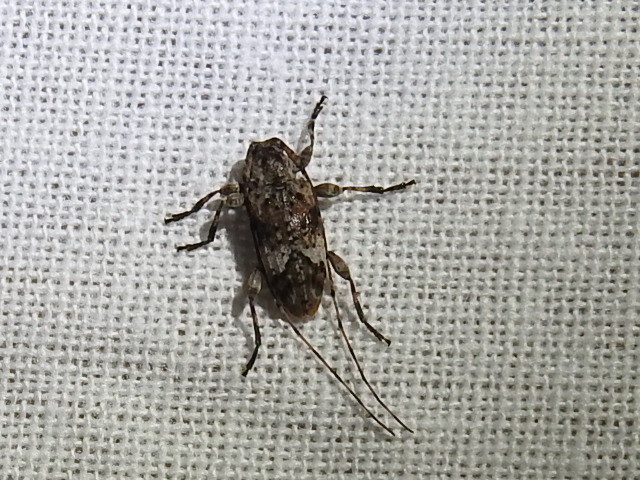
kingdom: Animalia
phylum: Arthropoda
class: Insecta
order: Coleoptera
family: Cerambycidae
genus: Sternidius
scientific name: Sternidius alpha
